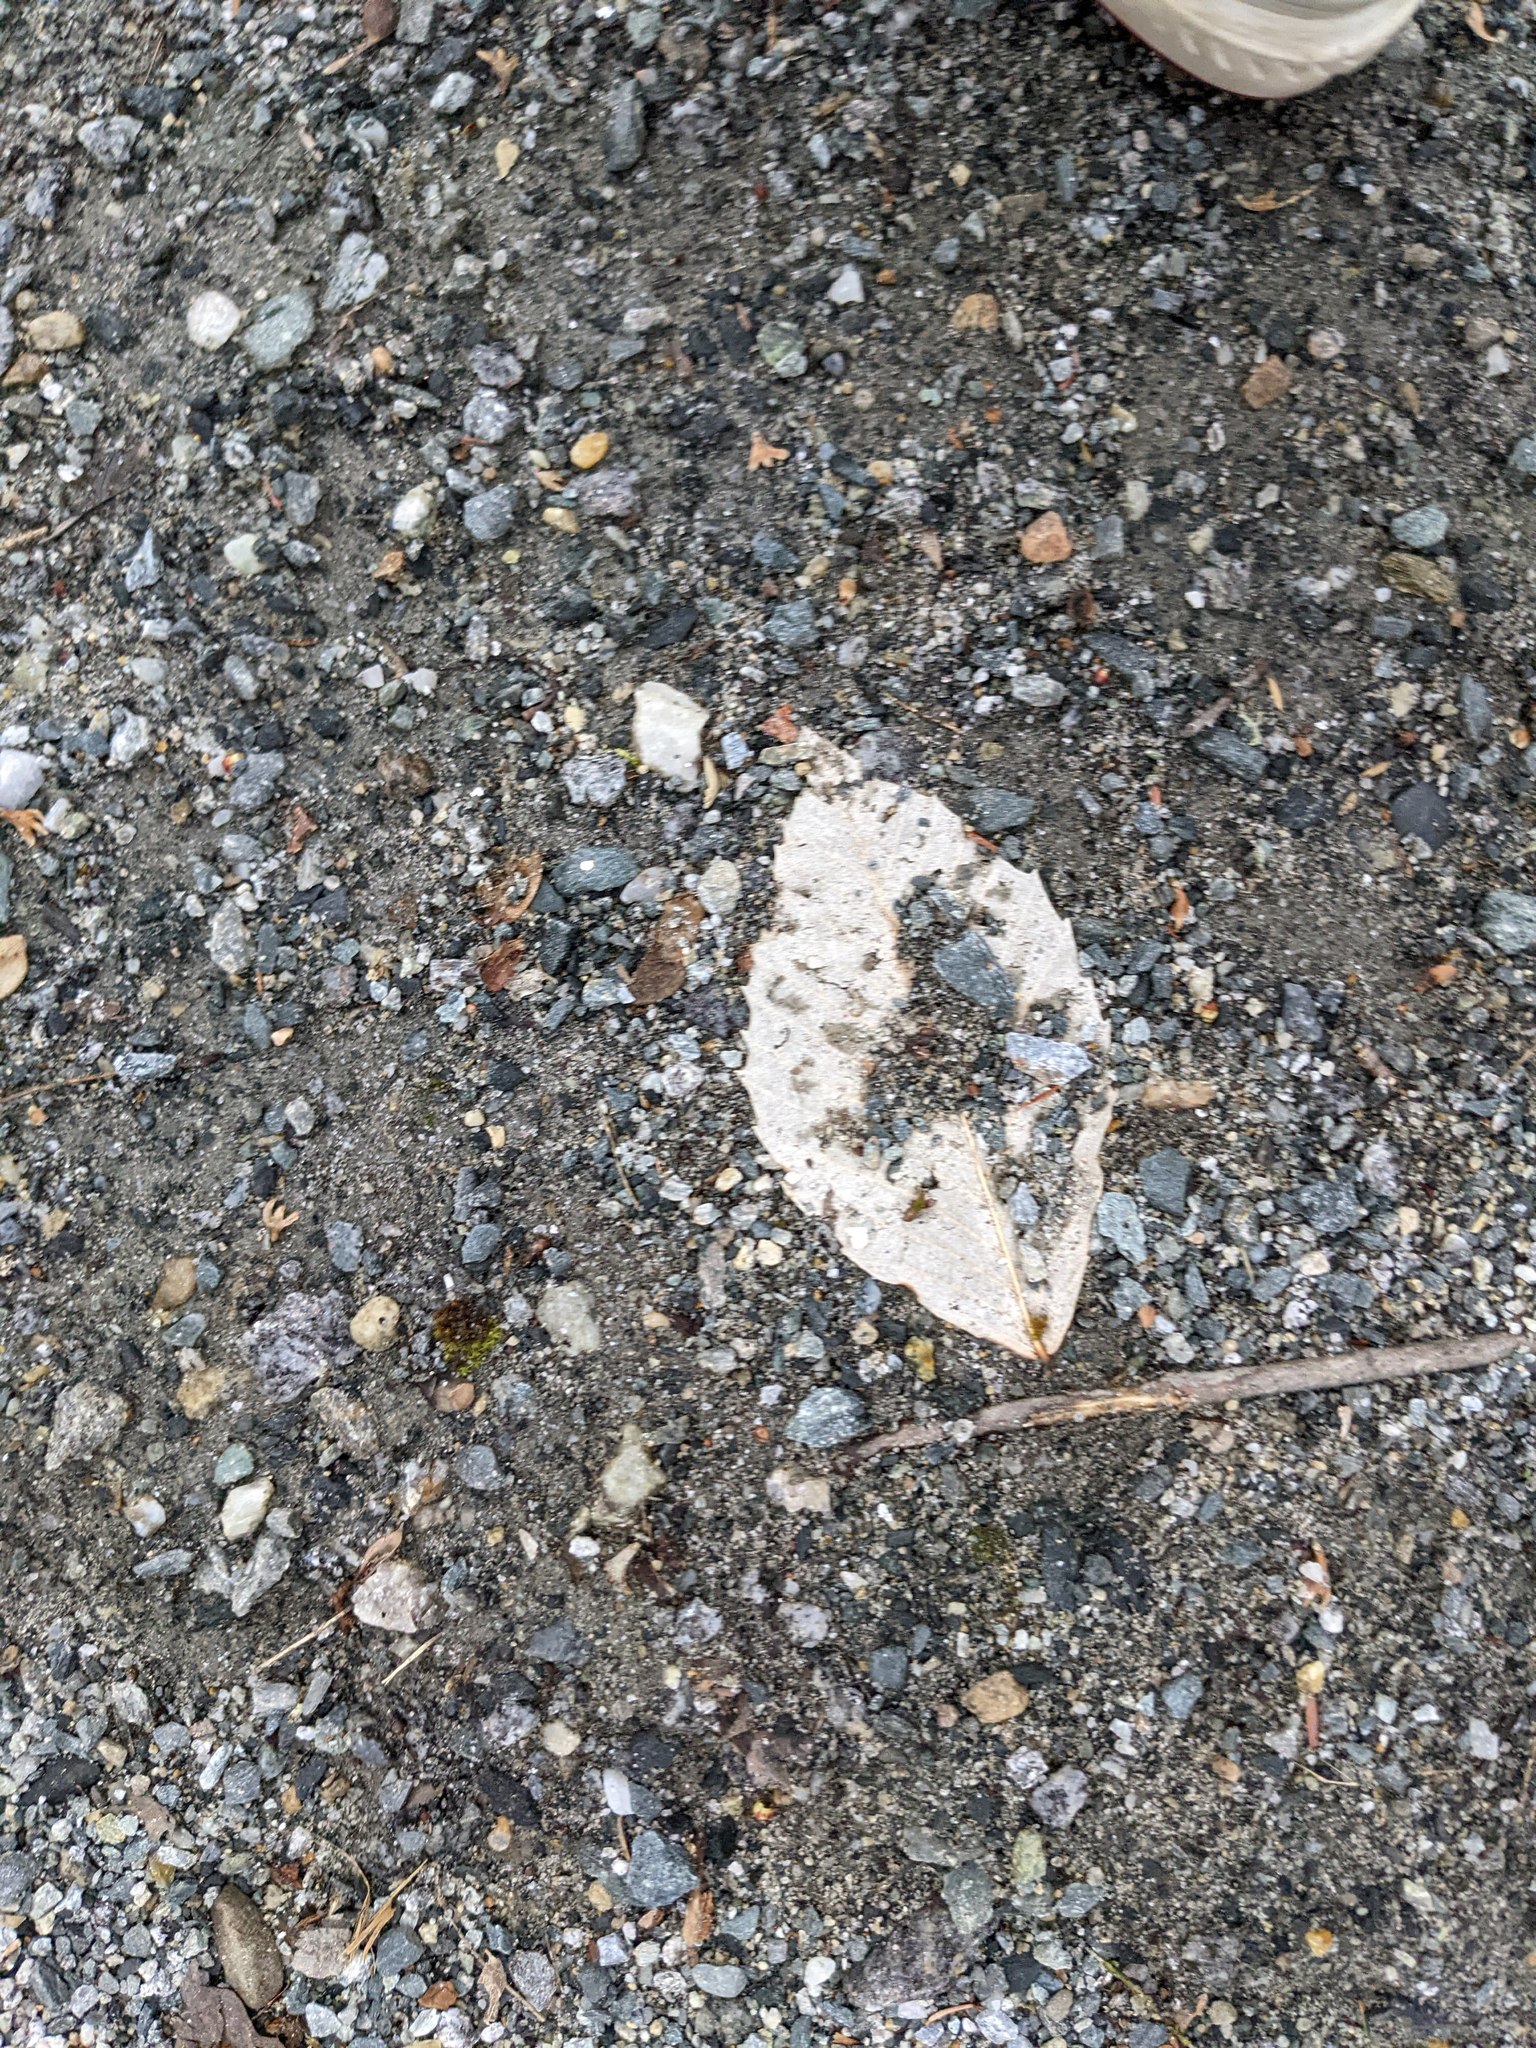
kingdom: Plantae
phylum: Tracheophyta
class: Magnoliopsida
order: Fagales
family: Fagaceae
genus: Fagus
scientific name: Fagus grandifolia
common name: American beech
